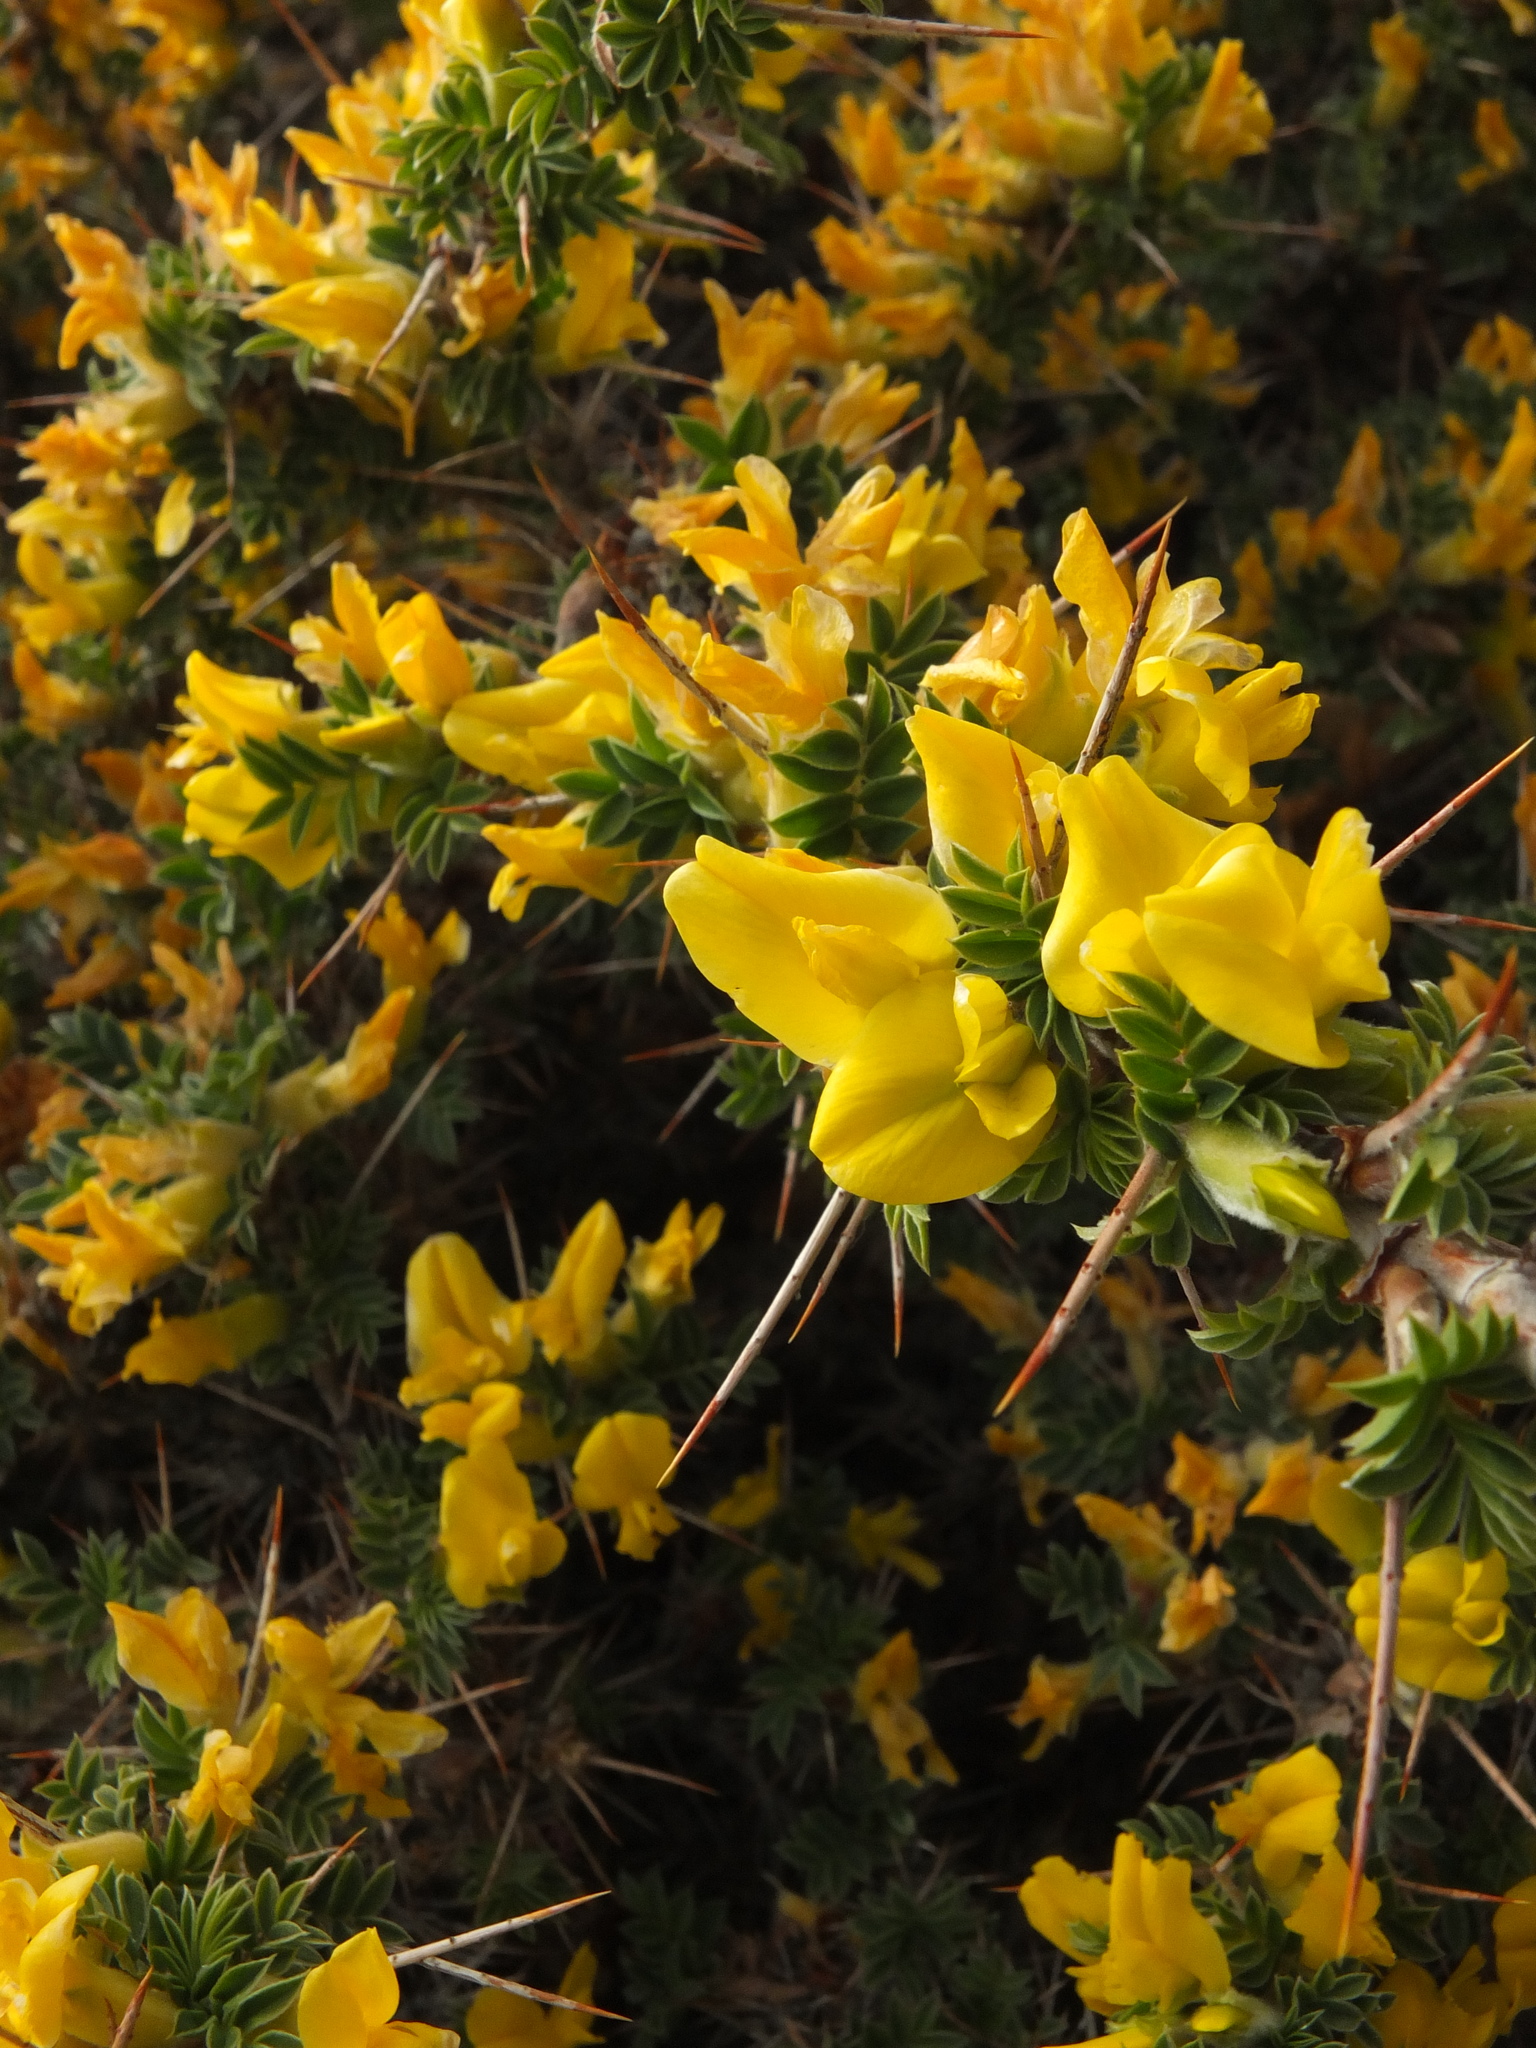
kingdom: Plantae
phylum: Tracheophyta
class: Magnoliopsida
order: Fabales
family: Fabaceae
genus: Astragalus
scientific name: Astragalus grahamianus
